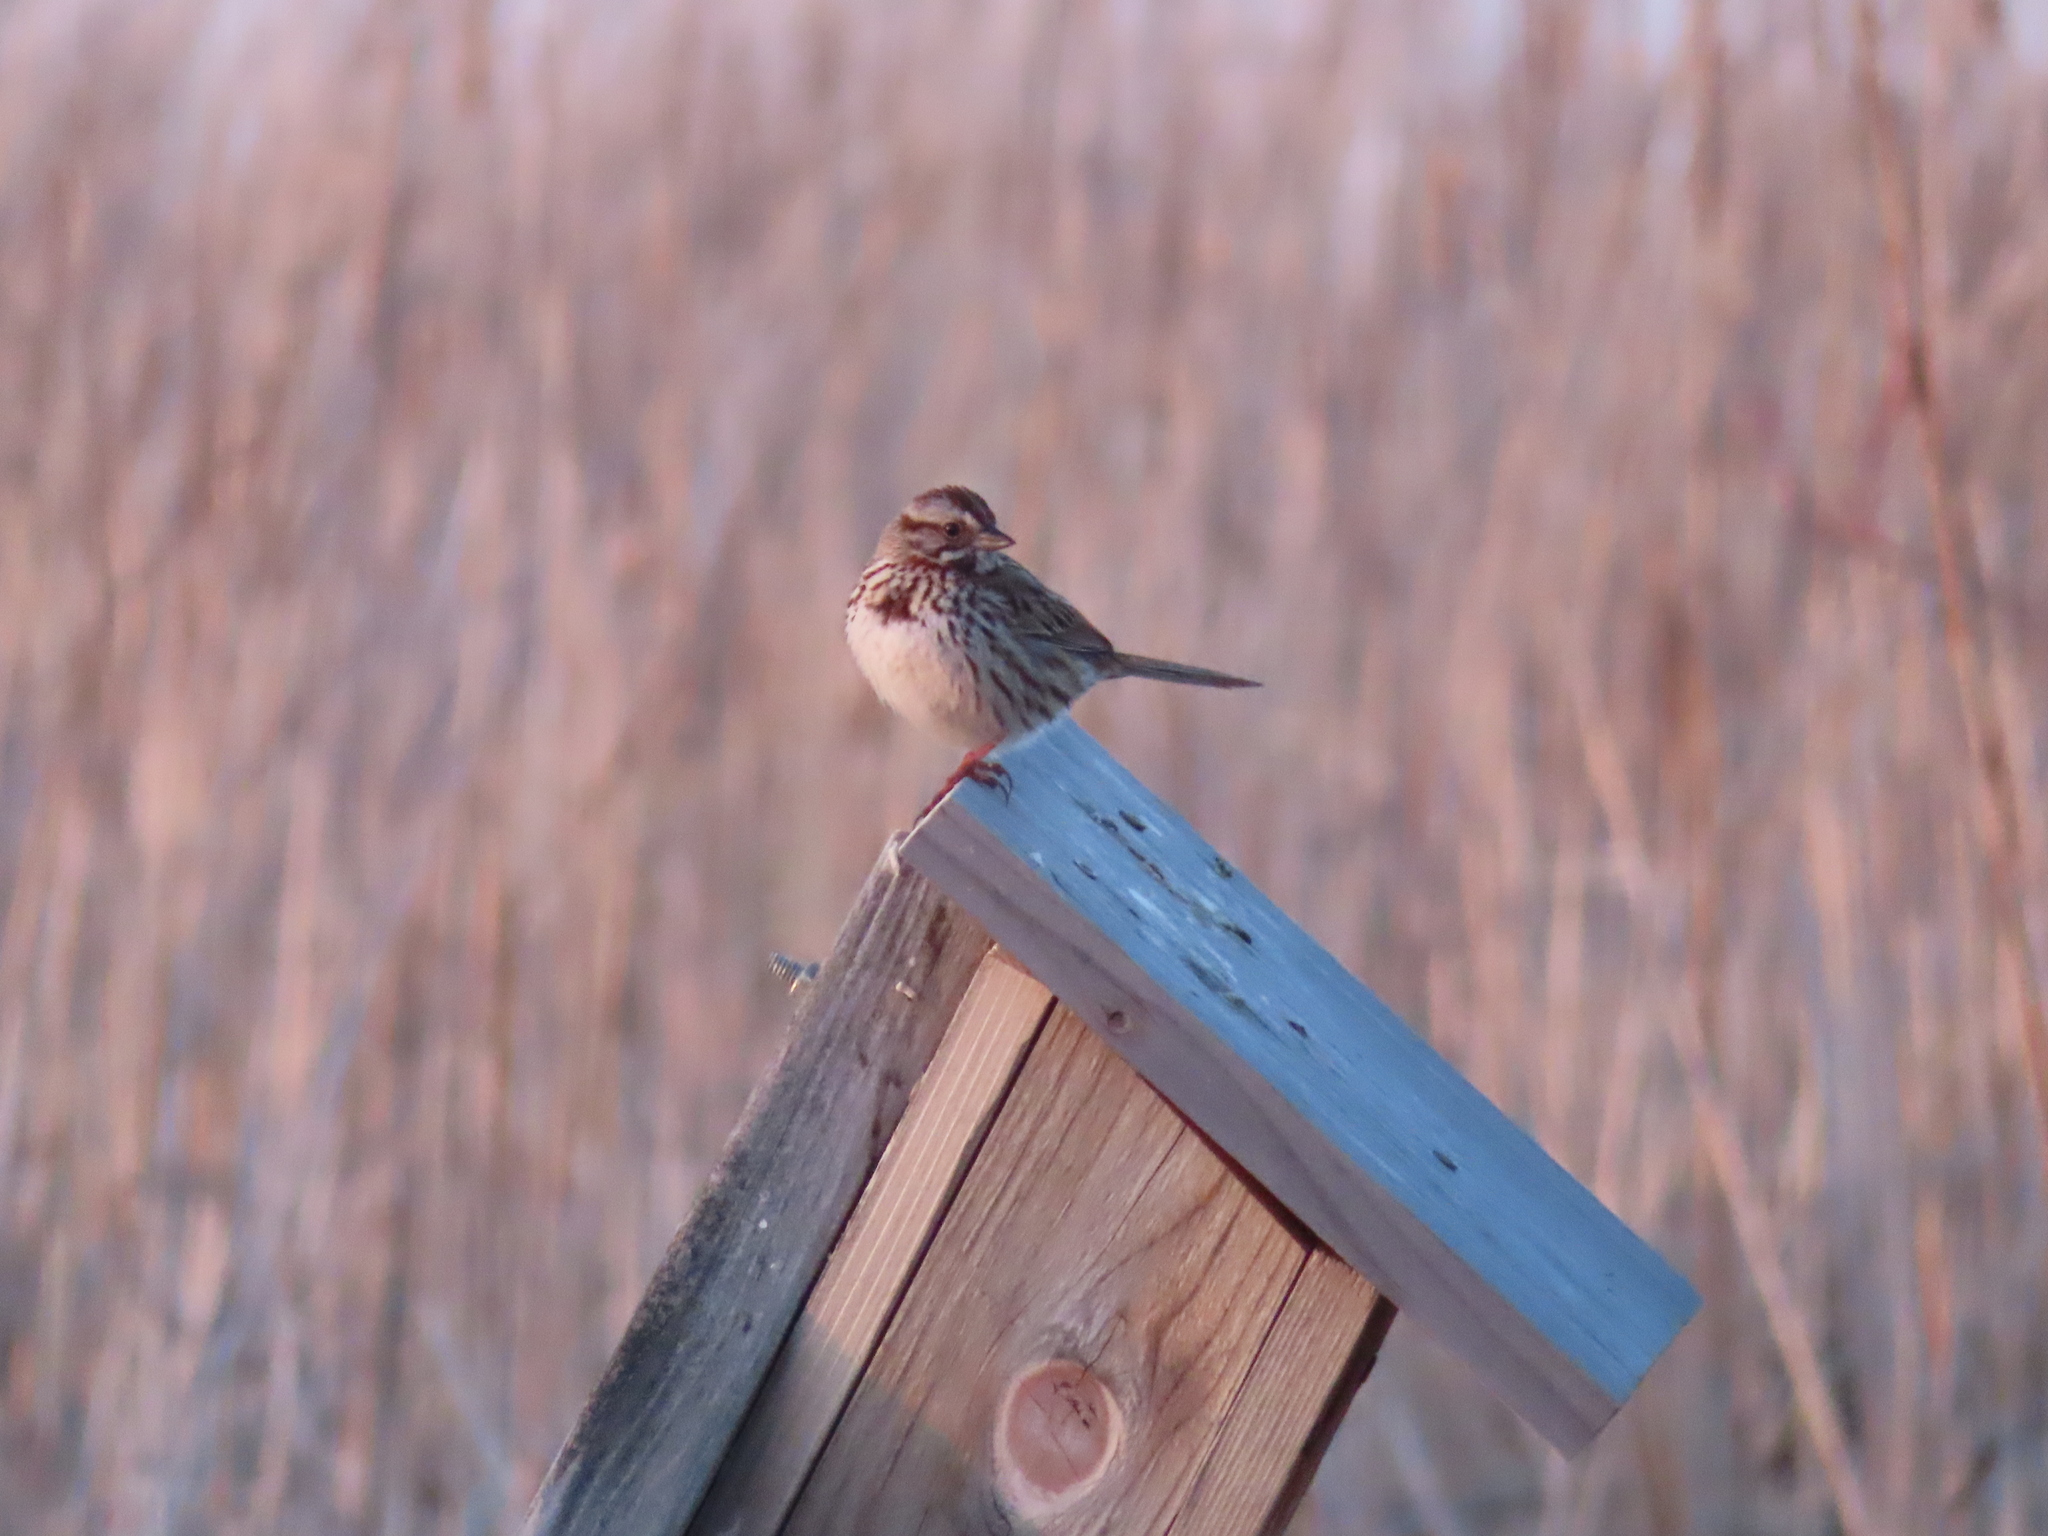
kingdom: Animalia
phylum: Chordata
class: Aves
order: Passeriformes
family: Passerellidae
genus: Melospiza
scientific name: Melospiza melodia
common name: Song sparrow
